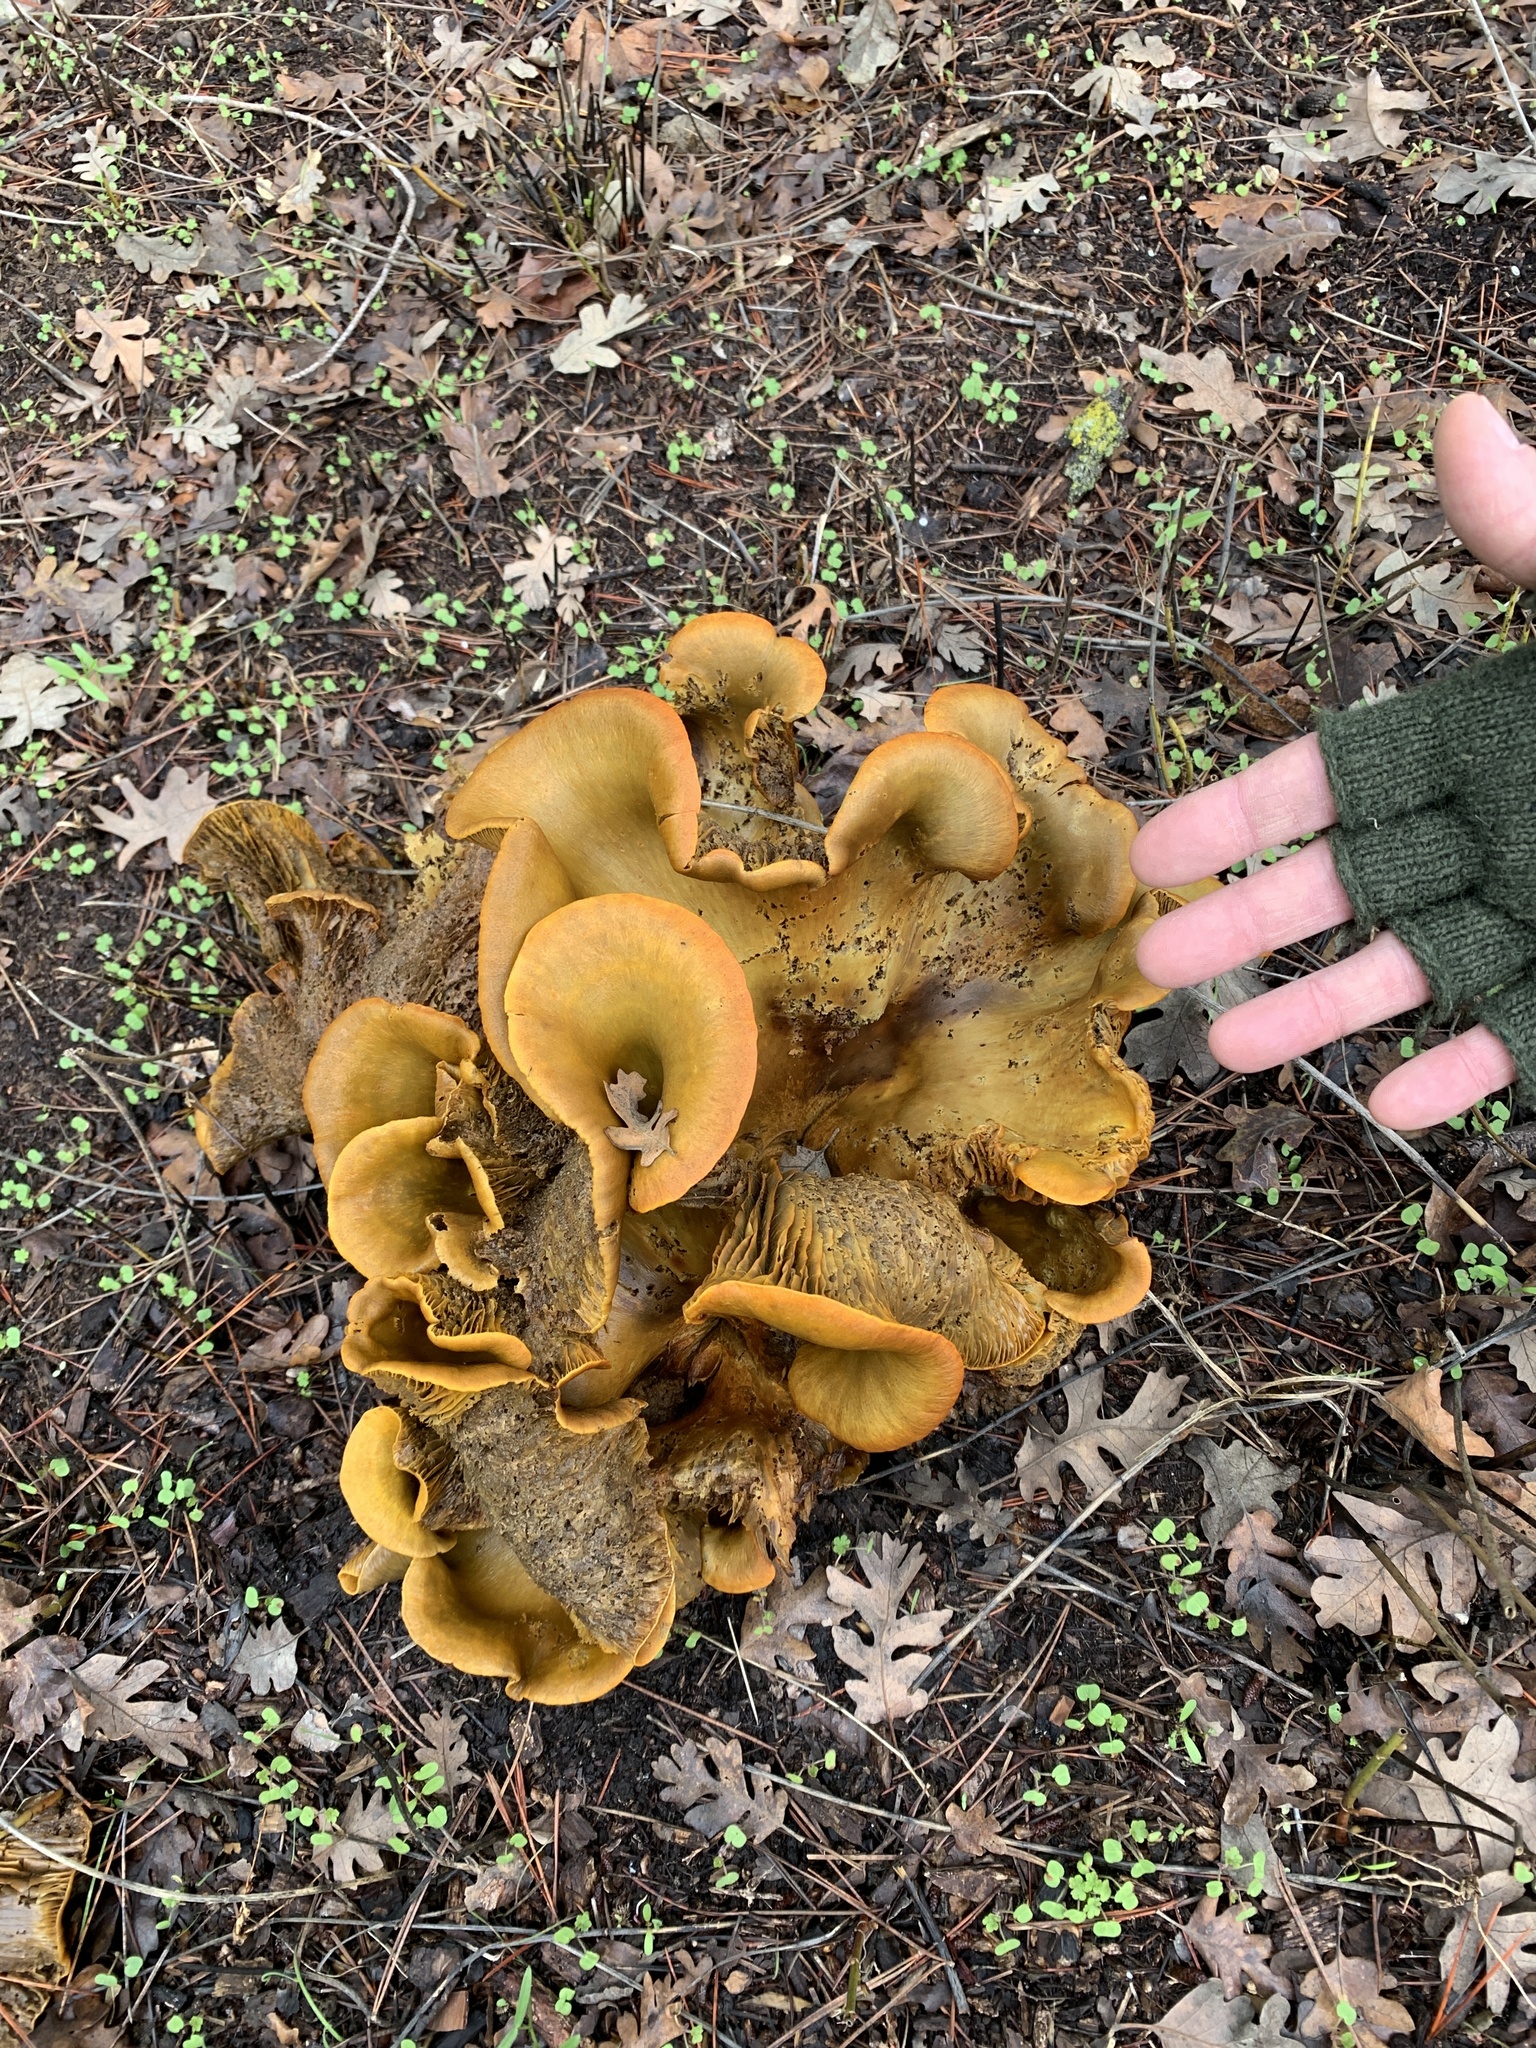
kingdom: Fungi
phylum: Basidiomycota
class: Agaricomycetes
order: Agaricales
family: Omphalotaceae
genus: Omphalotus
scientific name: Omphalotus olivascens
